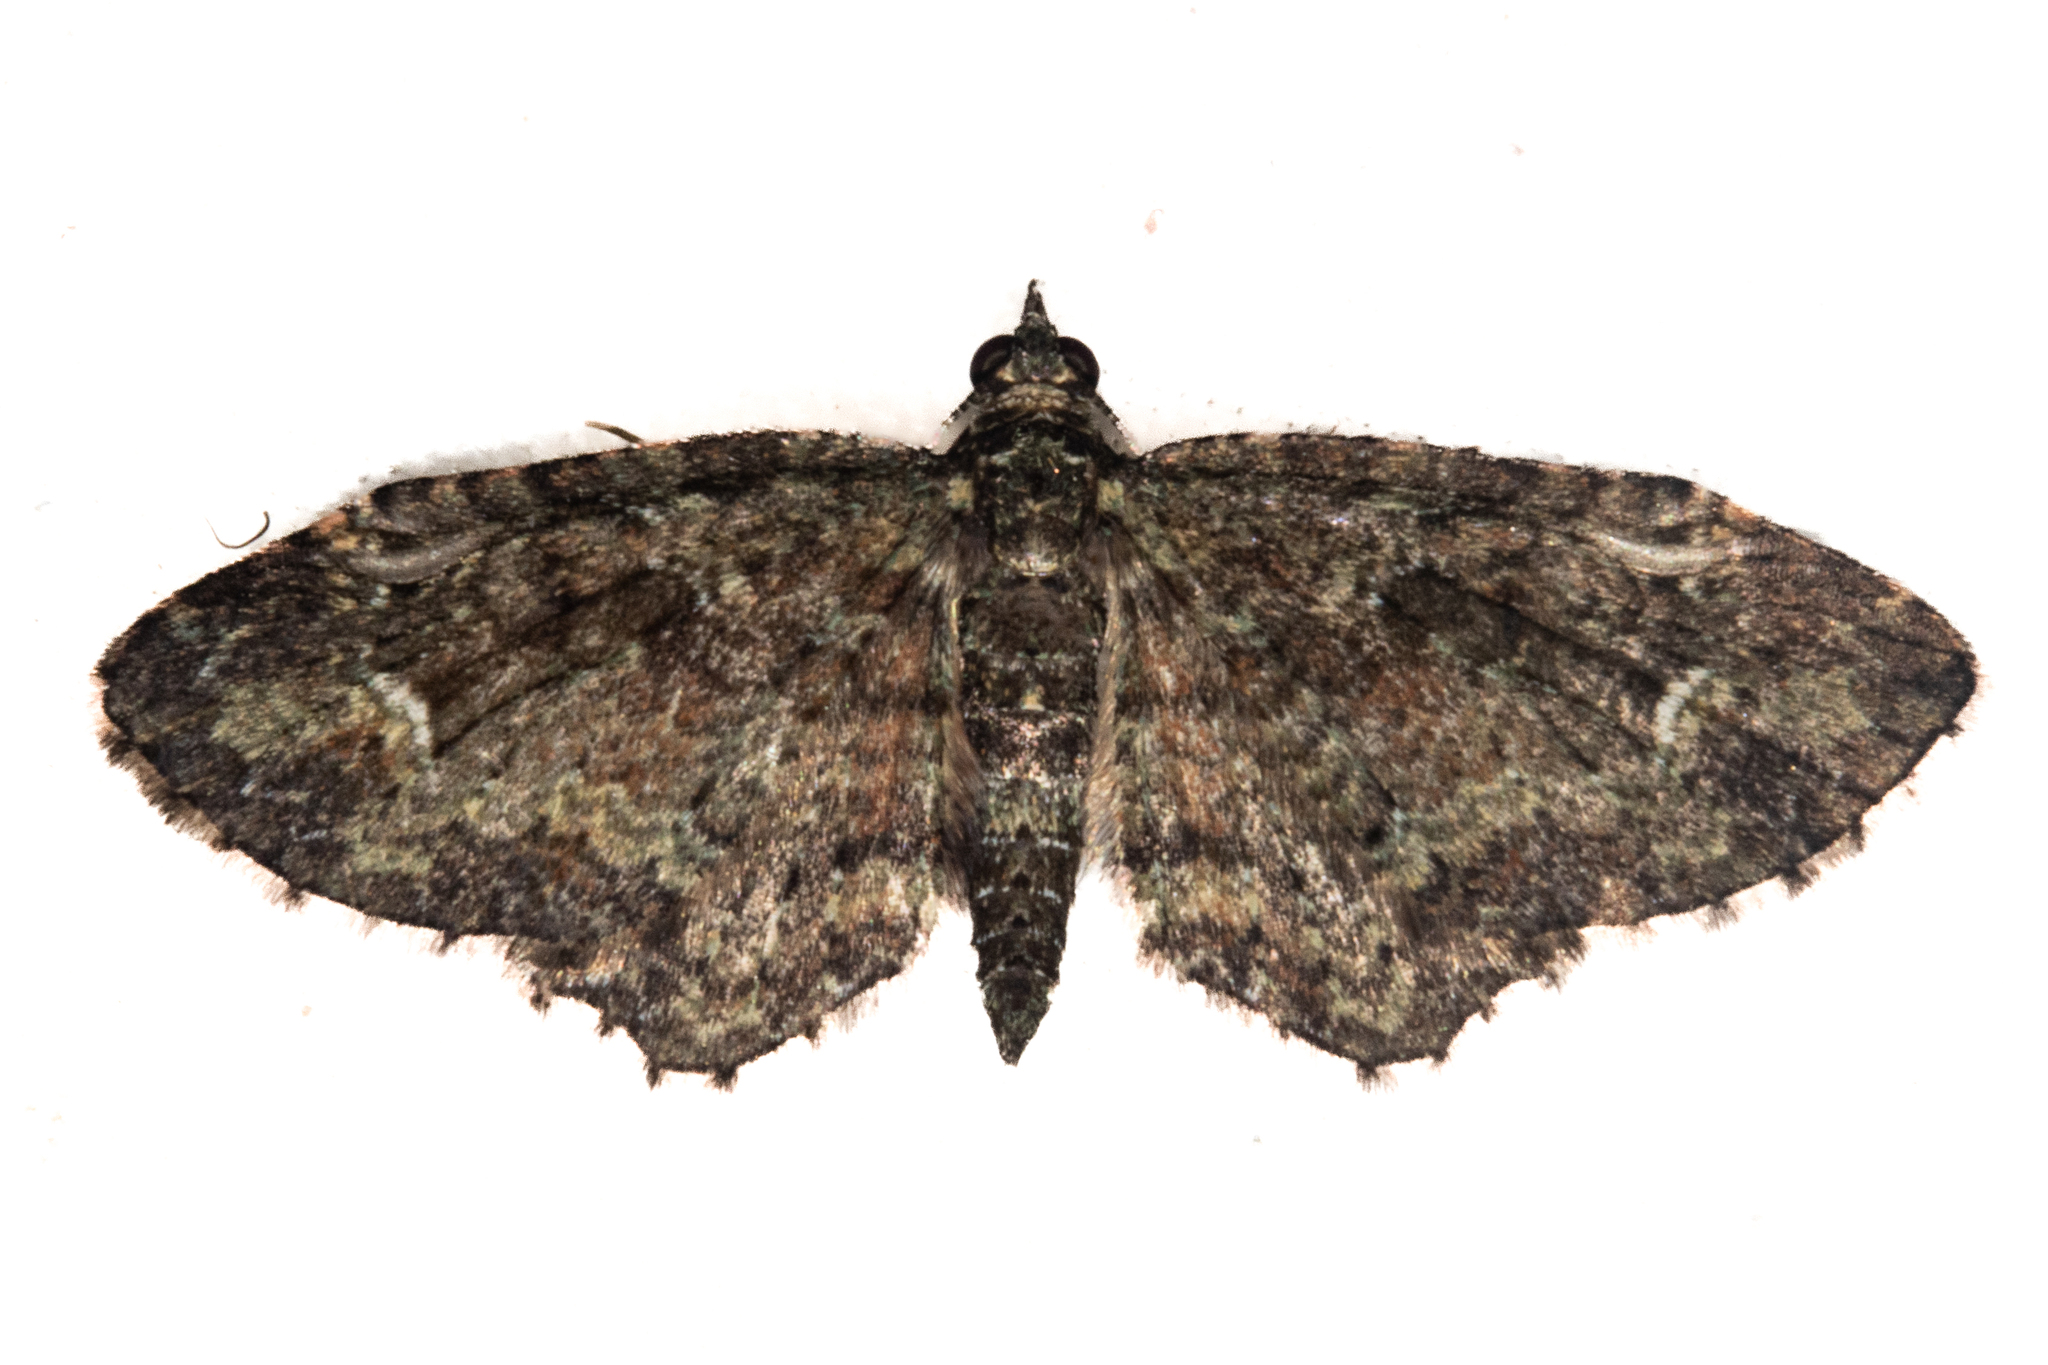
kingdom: Animalia
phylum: Arthropoda
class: Insecta
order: Lepidoptera
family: Geometridae
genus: Pasiphilodes
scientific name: Pasiphilodes testulata
